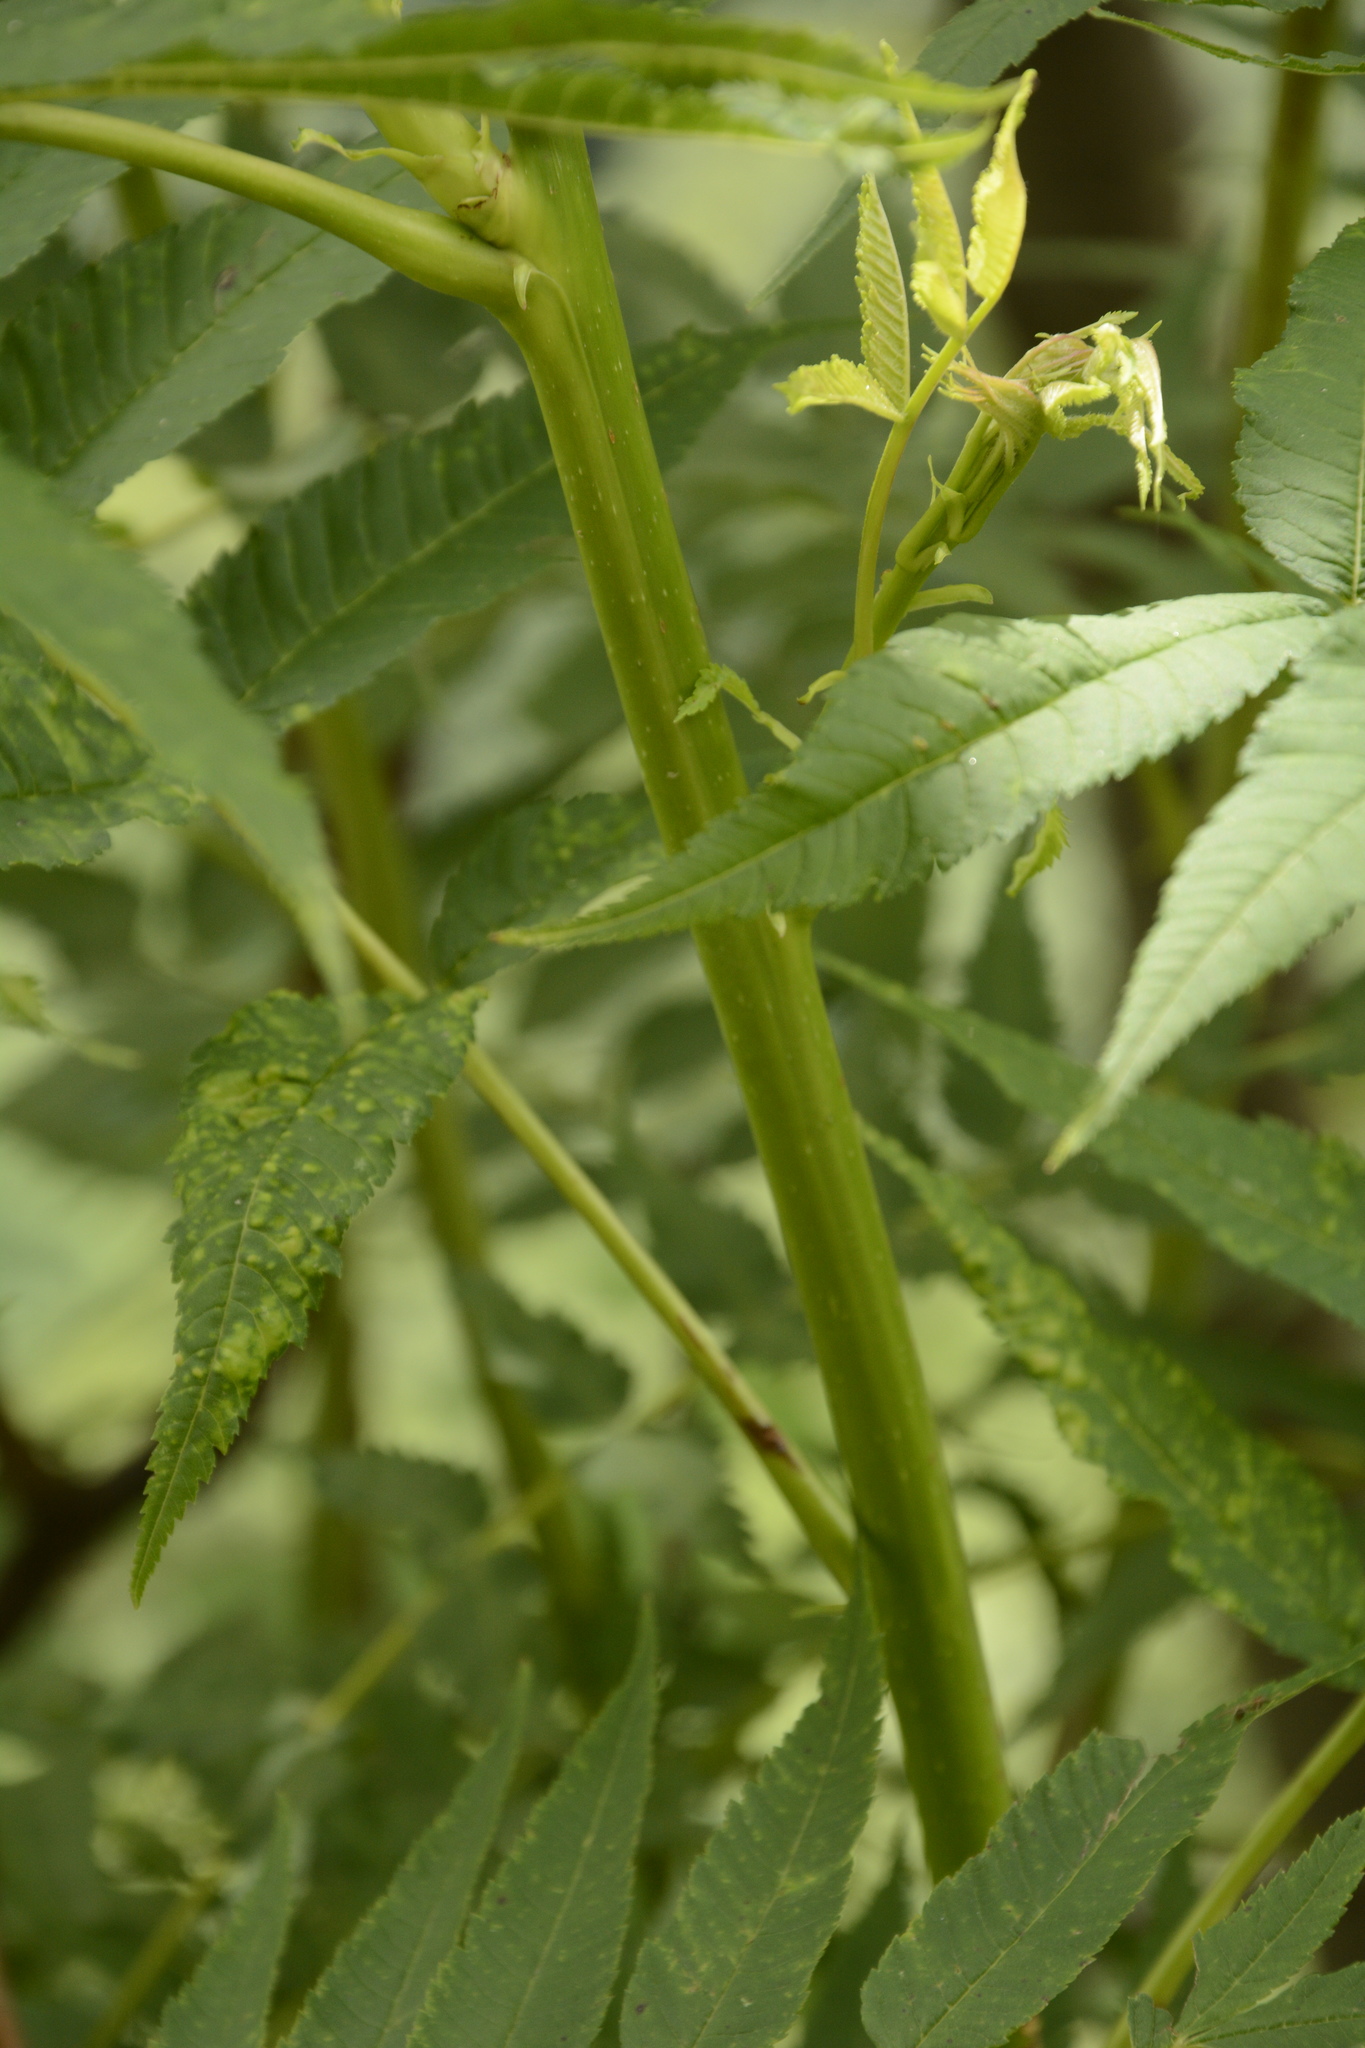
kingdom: Plantae
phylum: Tracheophyta
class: Magnoliopsida
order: Rosales
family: Rosaceae
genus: Sorbaria
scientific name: Sorbaria tomentosa
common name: Himalayan sorbaria
